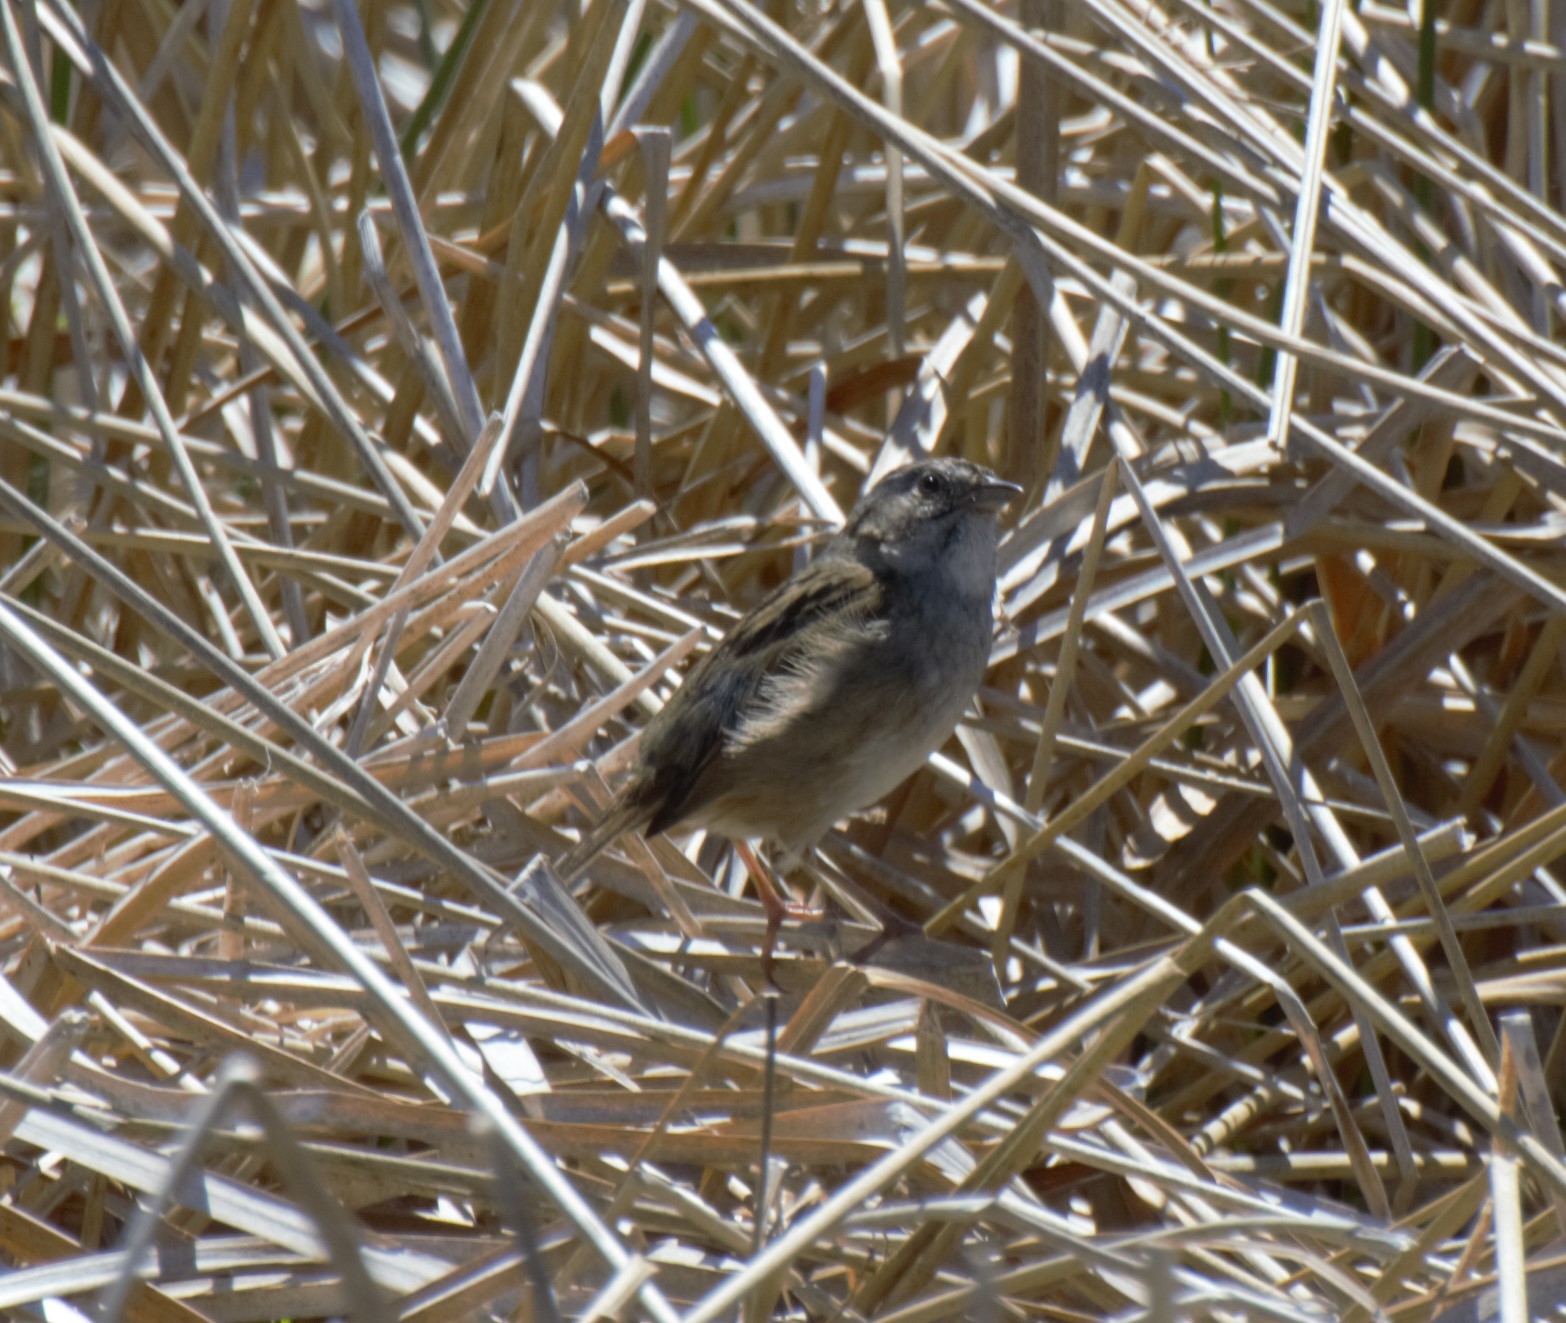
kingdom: Animalia
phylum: Chordata
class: Aves
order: Passeriformes
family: Passerellidae
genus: Melospiza
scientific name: Melospiza georgiana
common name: Swamp sparrow
